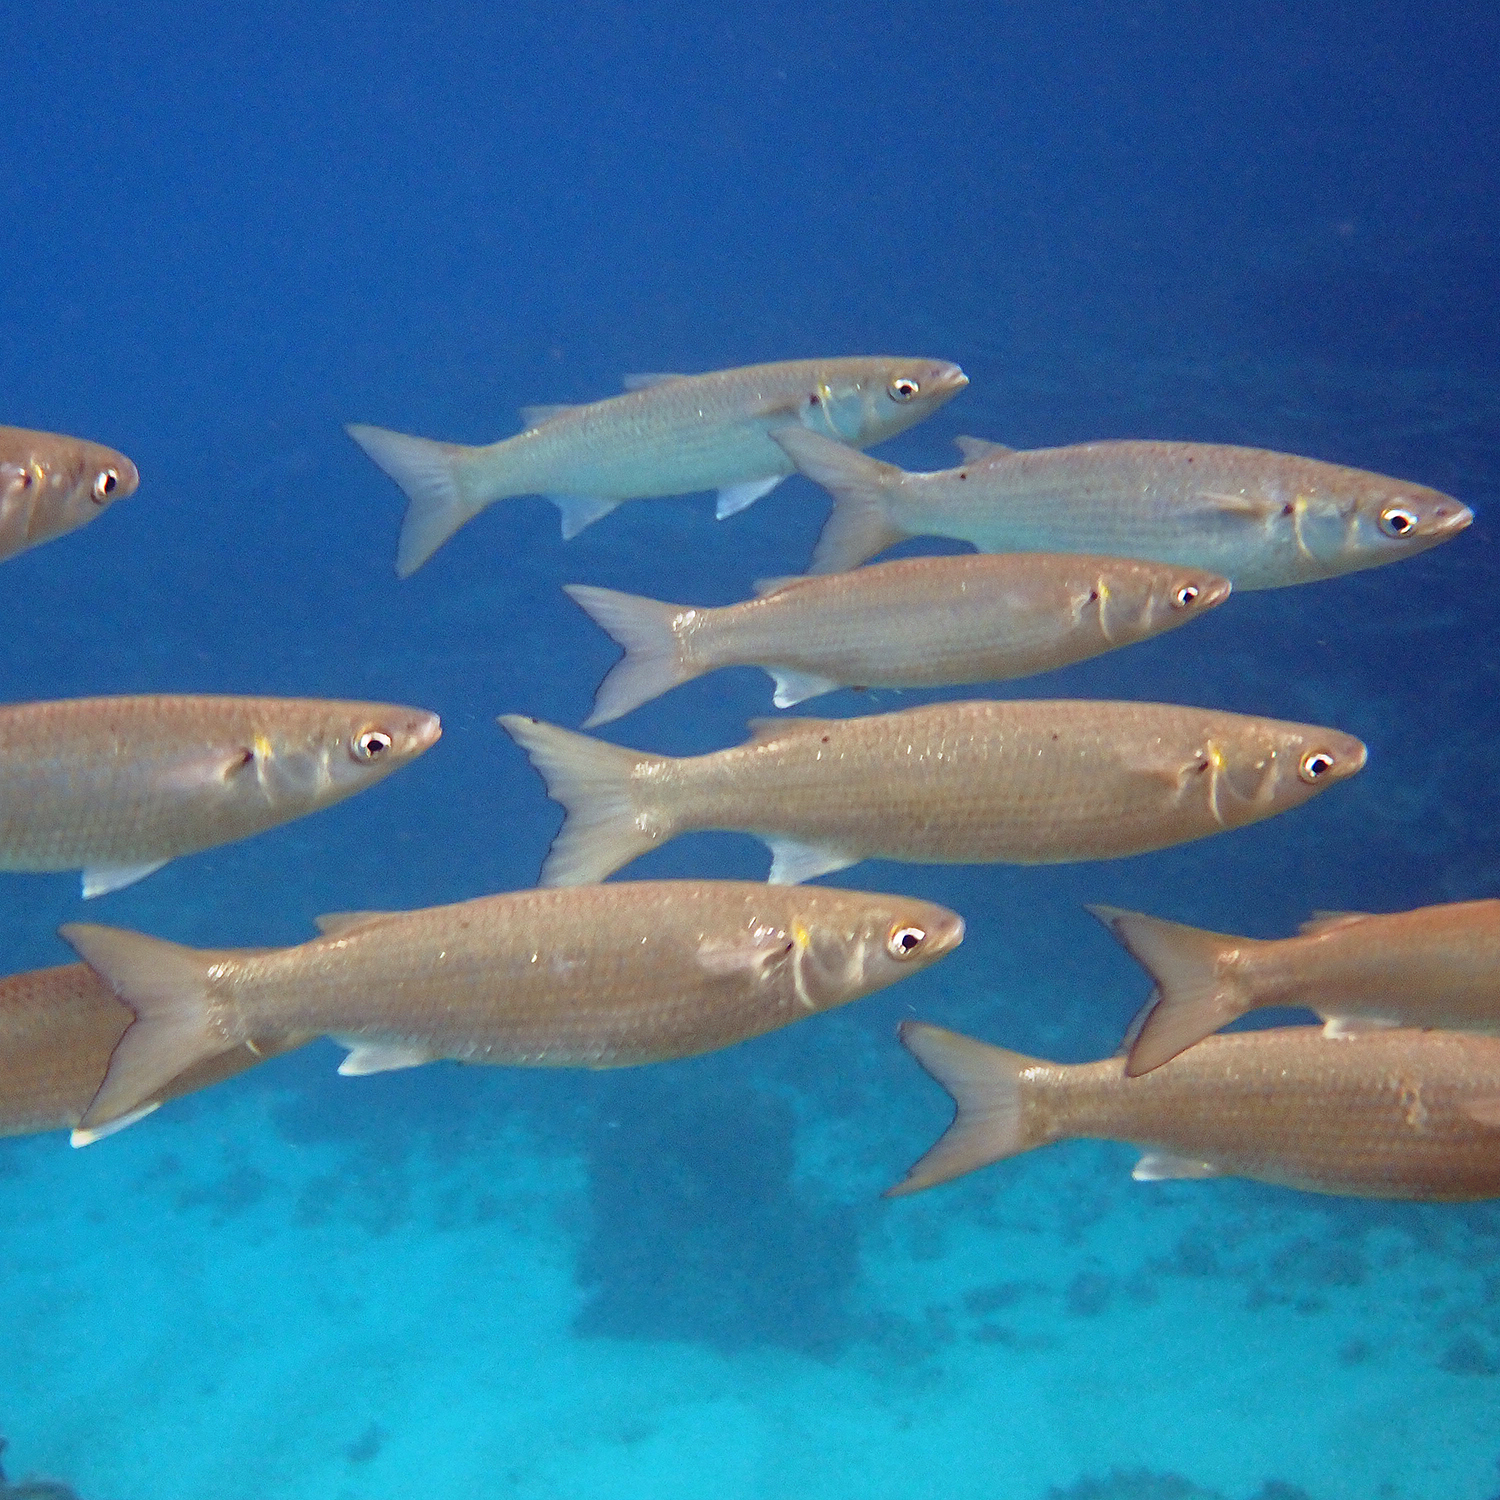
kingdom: Animalia
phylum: Chordata
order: Mugiliformes
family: Mugilidae
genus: Myxus
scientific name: Myxus elongatus
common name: Sand grey mullet
